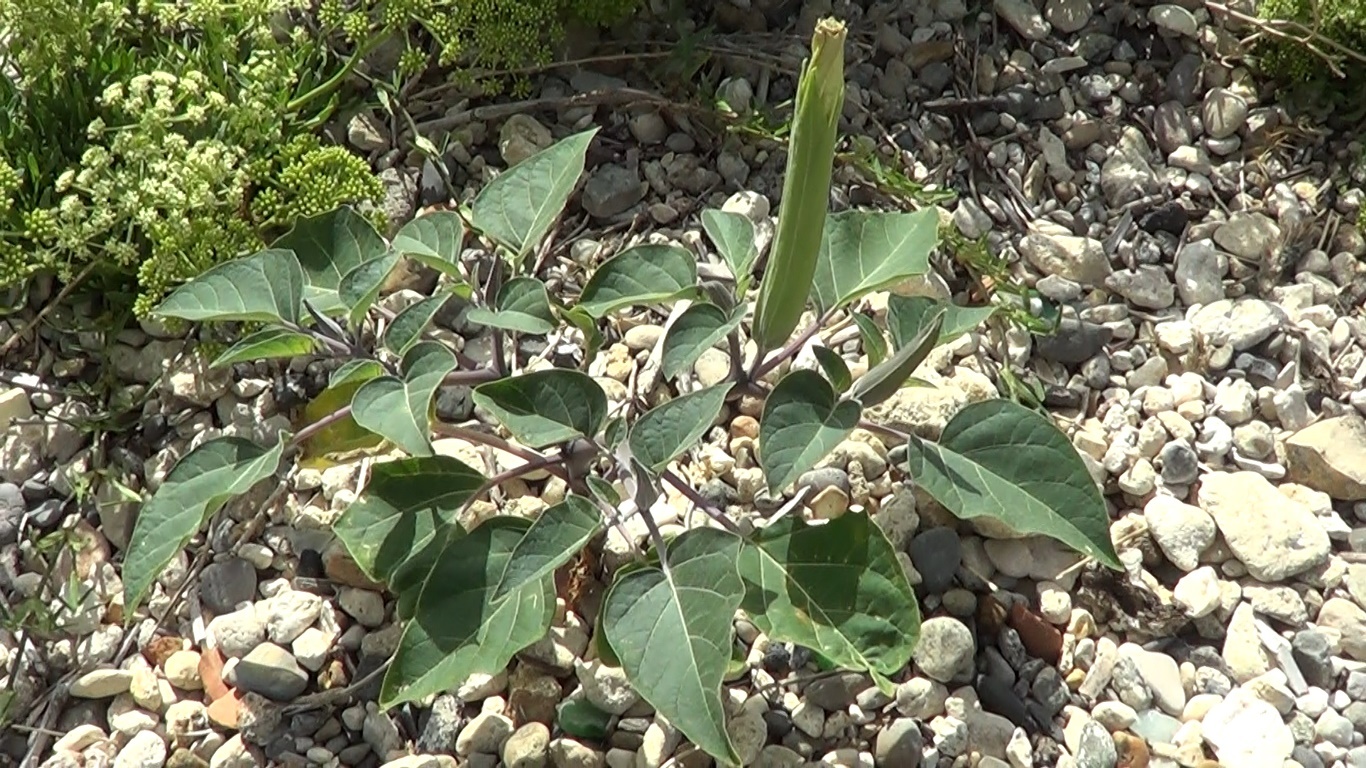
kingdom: Plantae
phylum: Tracheophyta
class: Magnoliopsida
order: Solanales
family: Solanaceae
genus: Datura
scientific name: Datura wrightii
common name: Sacred thorn-apple
